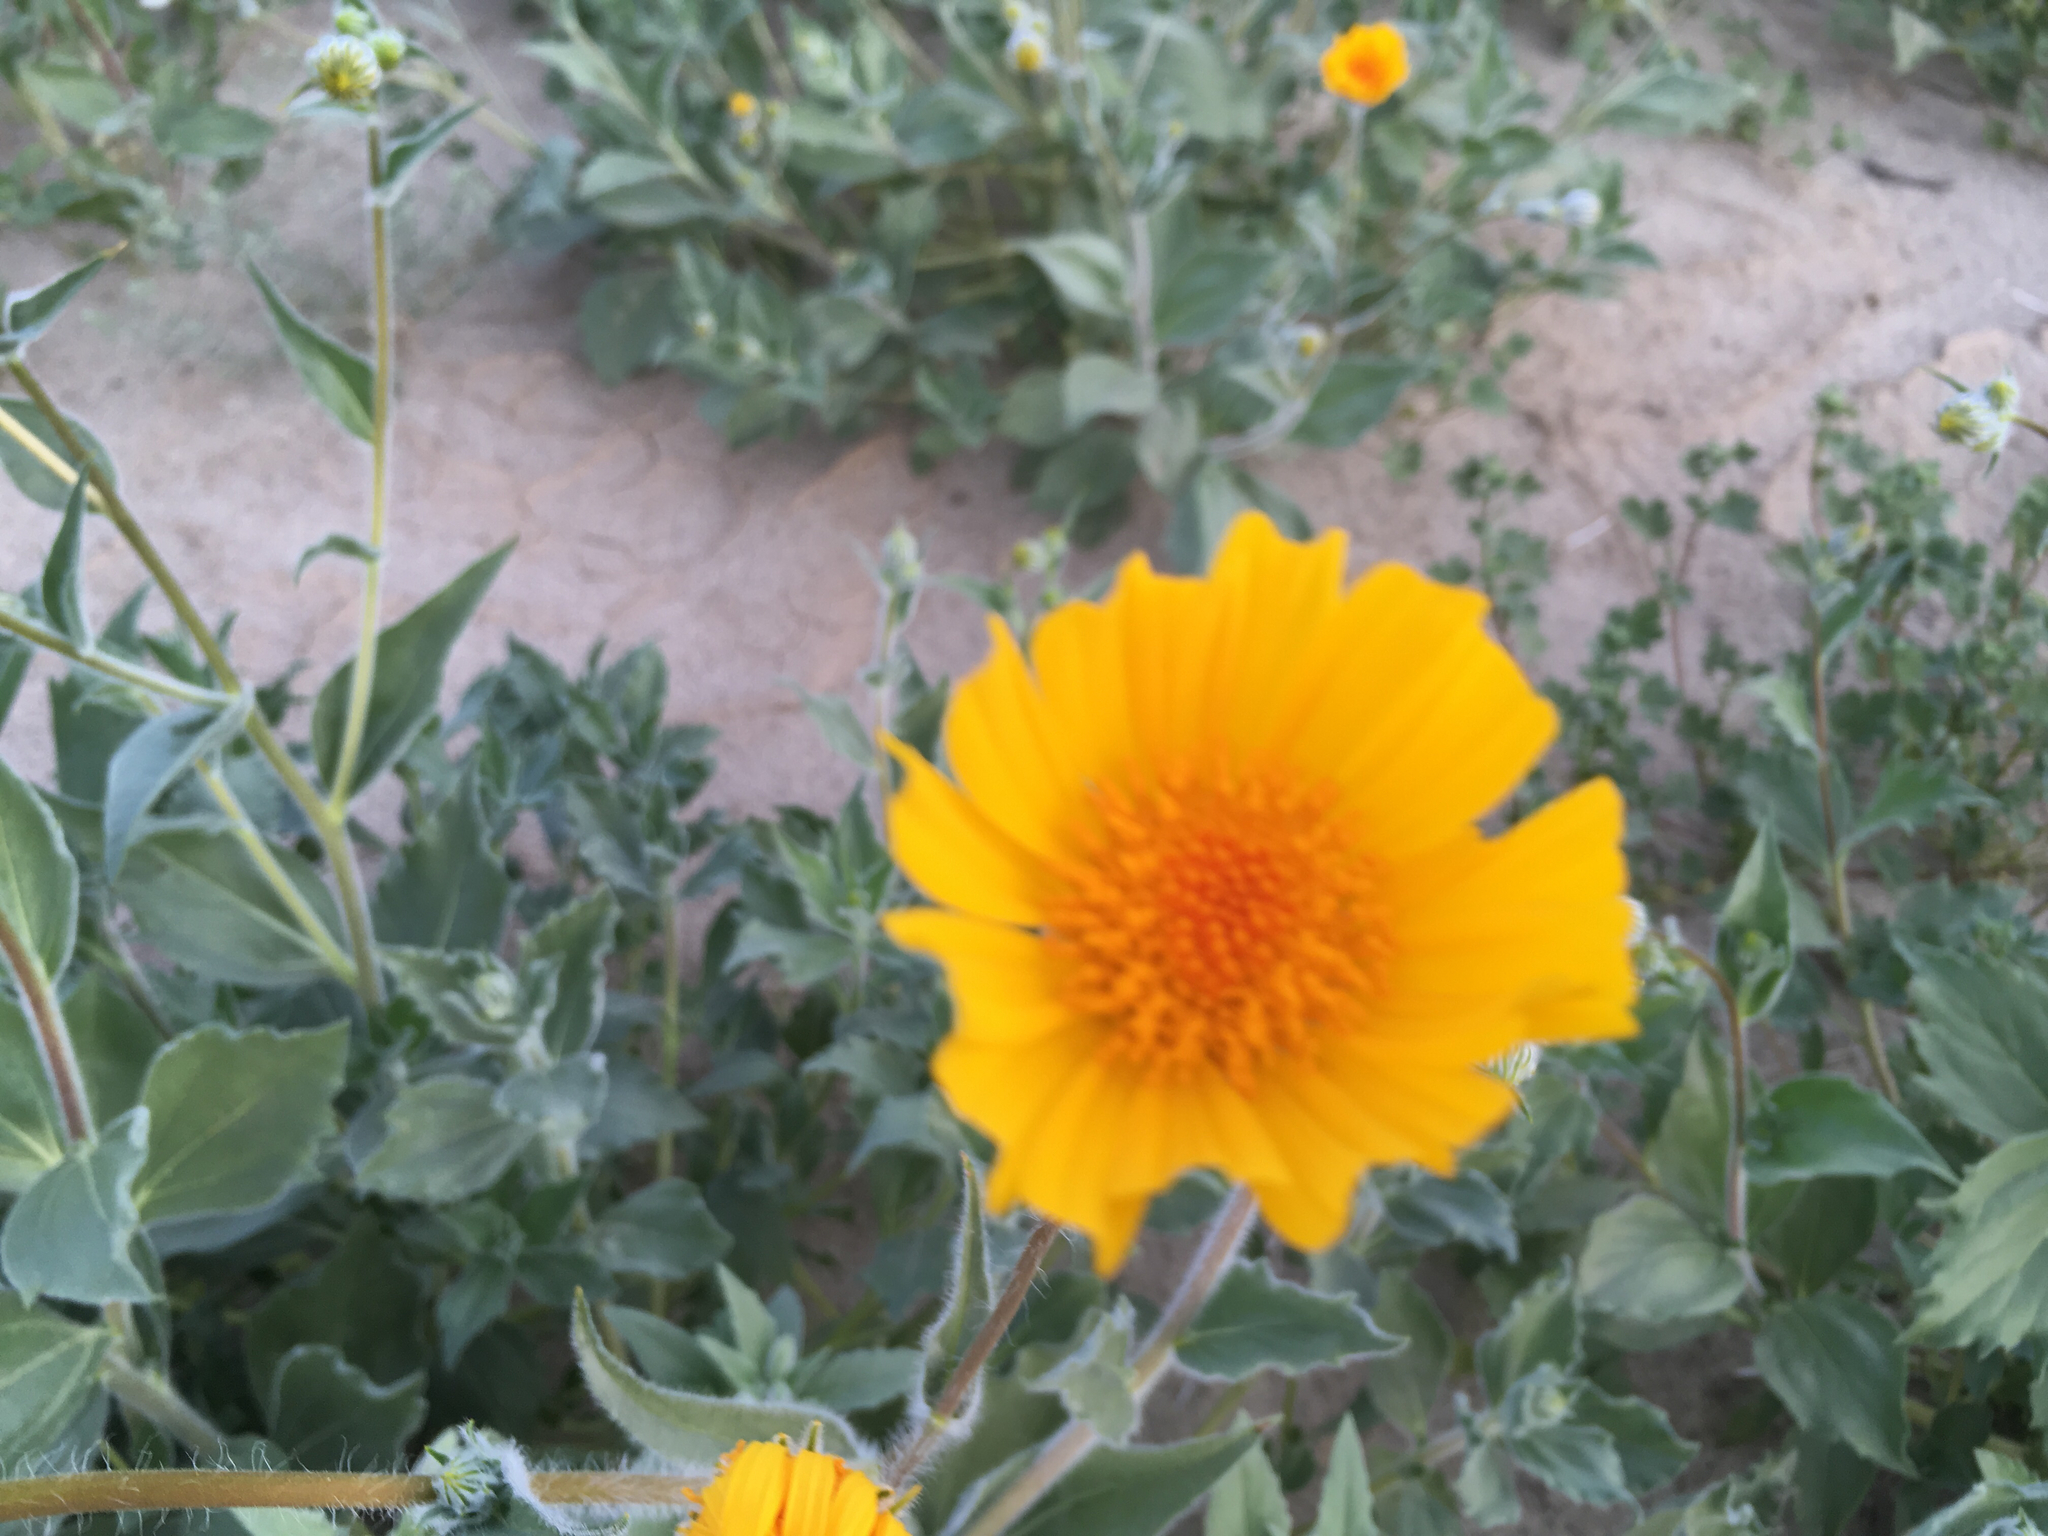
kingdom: Plantae
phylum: Tracheophyta
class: Magnoliopsida
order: Asterales
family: Asteraceae
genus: Geraea
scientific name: Geraea canescens
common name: Desert-gold
